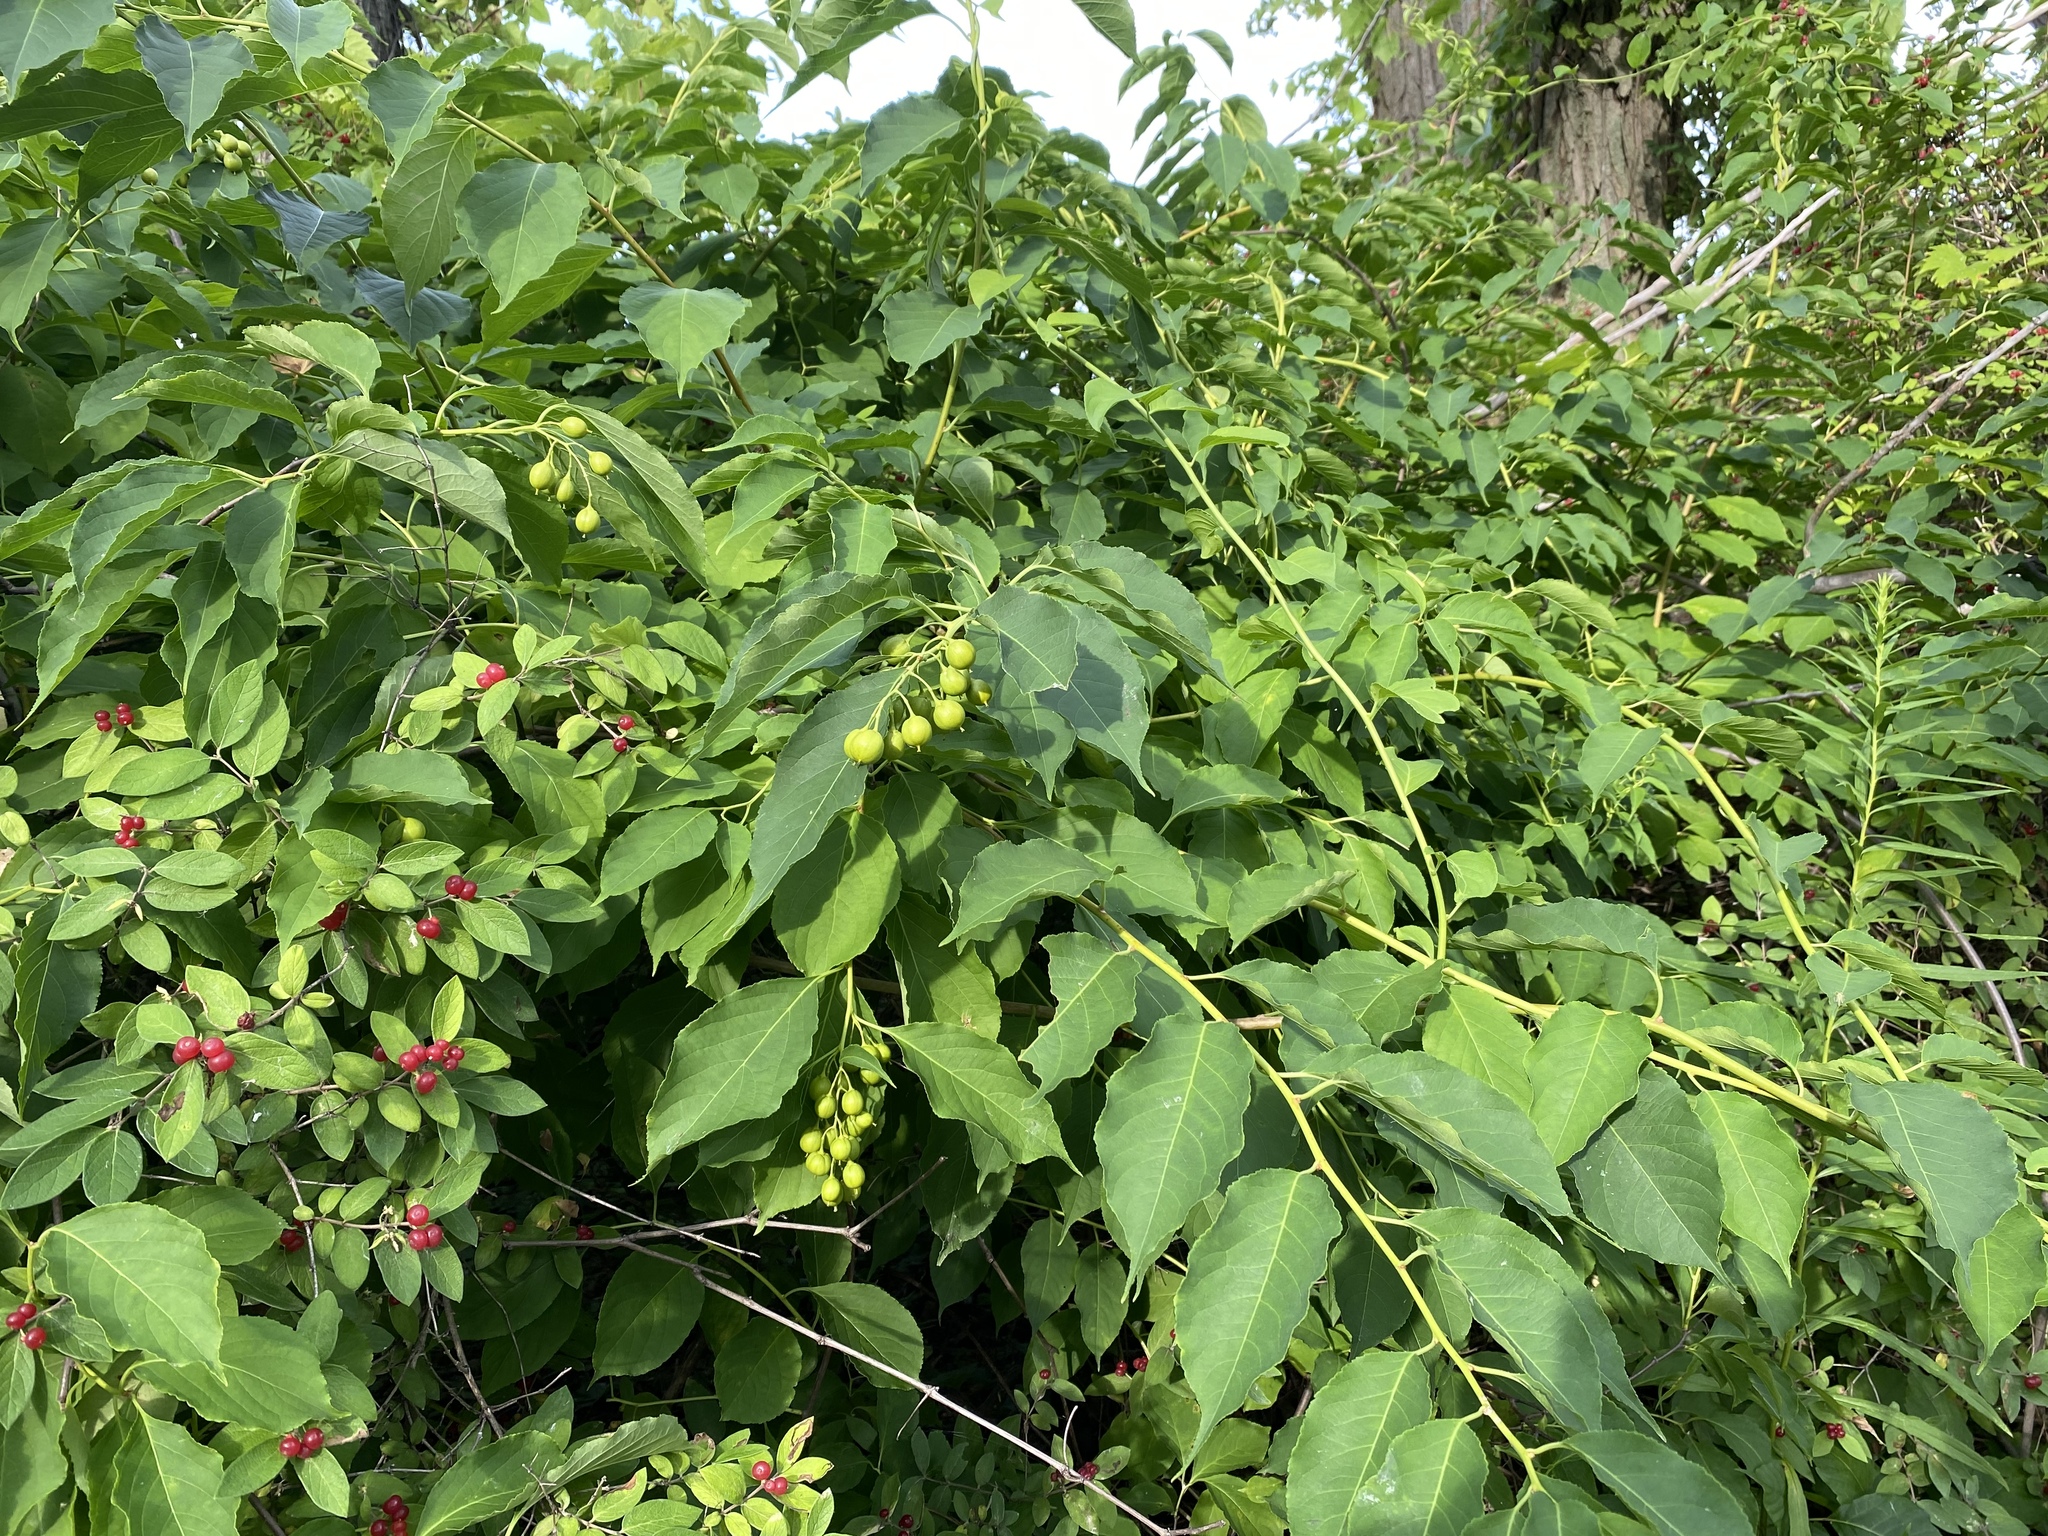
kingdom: Plantae
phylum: Tracheophyta
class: Magnoliopsida
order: Celastrales
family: Celastraceae
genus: Celastrus
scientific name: Celastrus scandens
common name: American bittersweet
